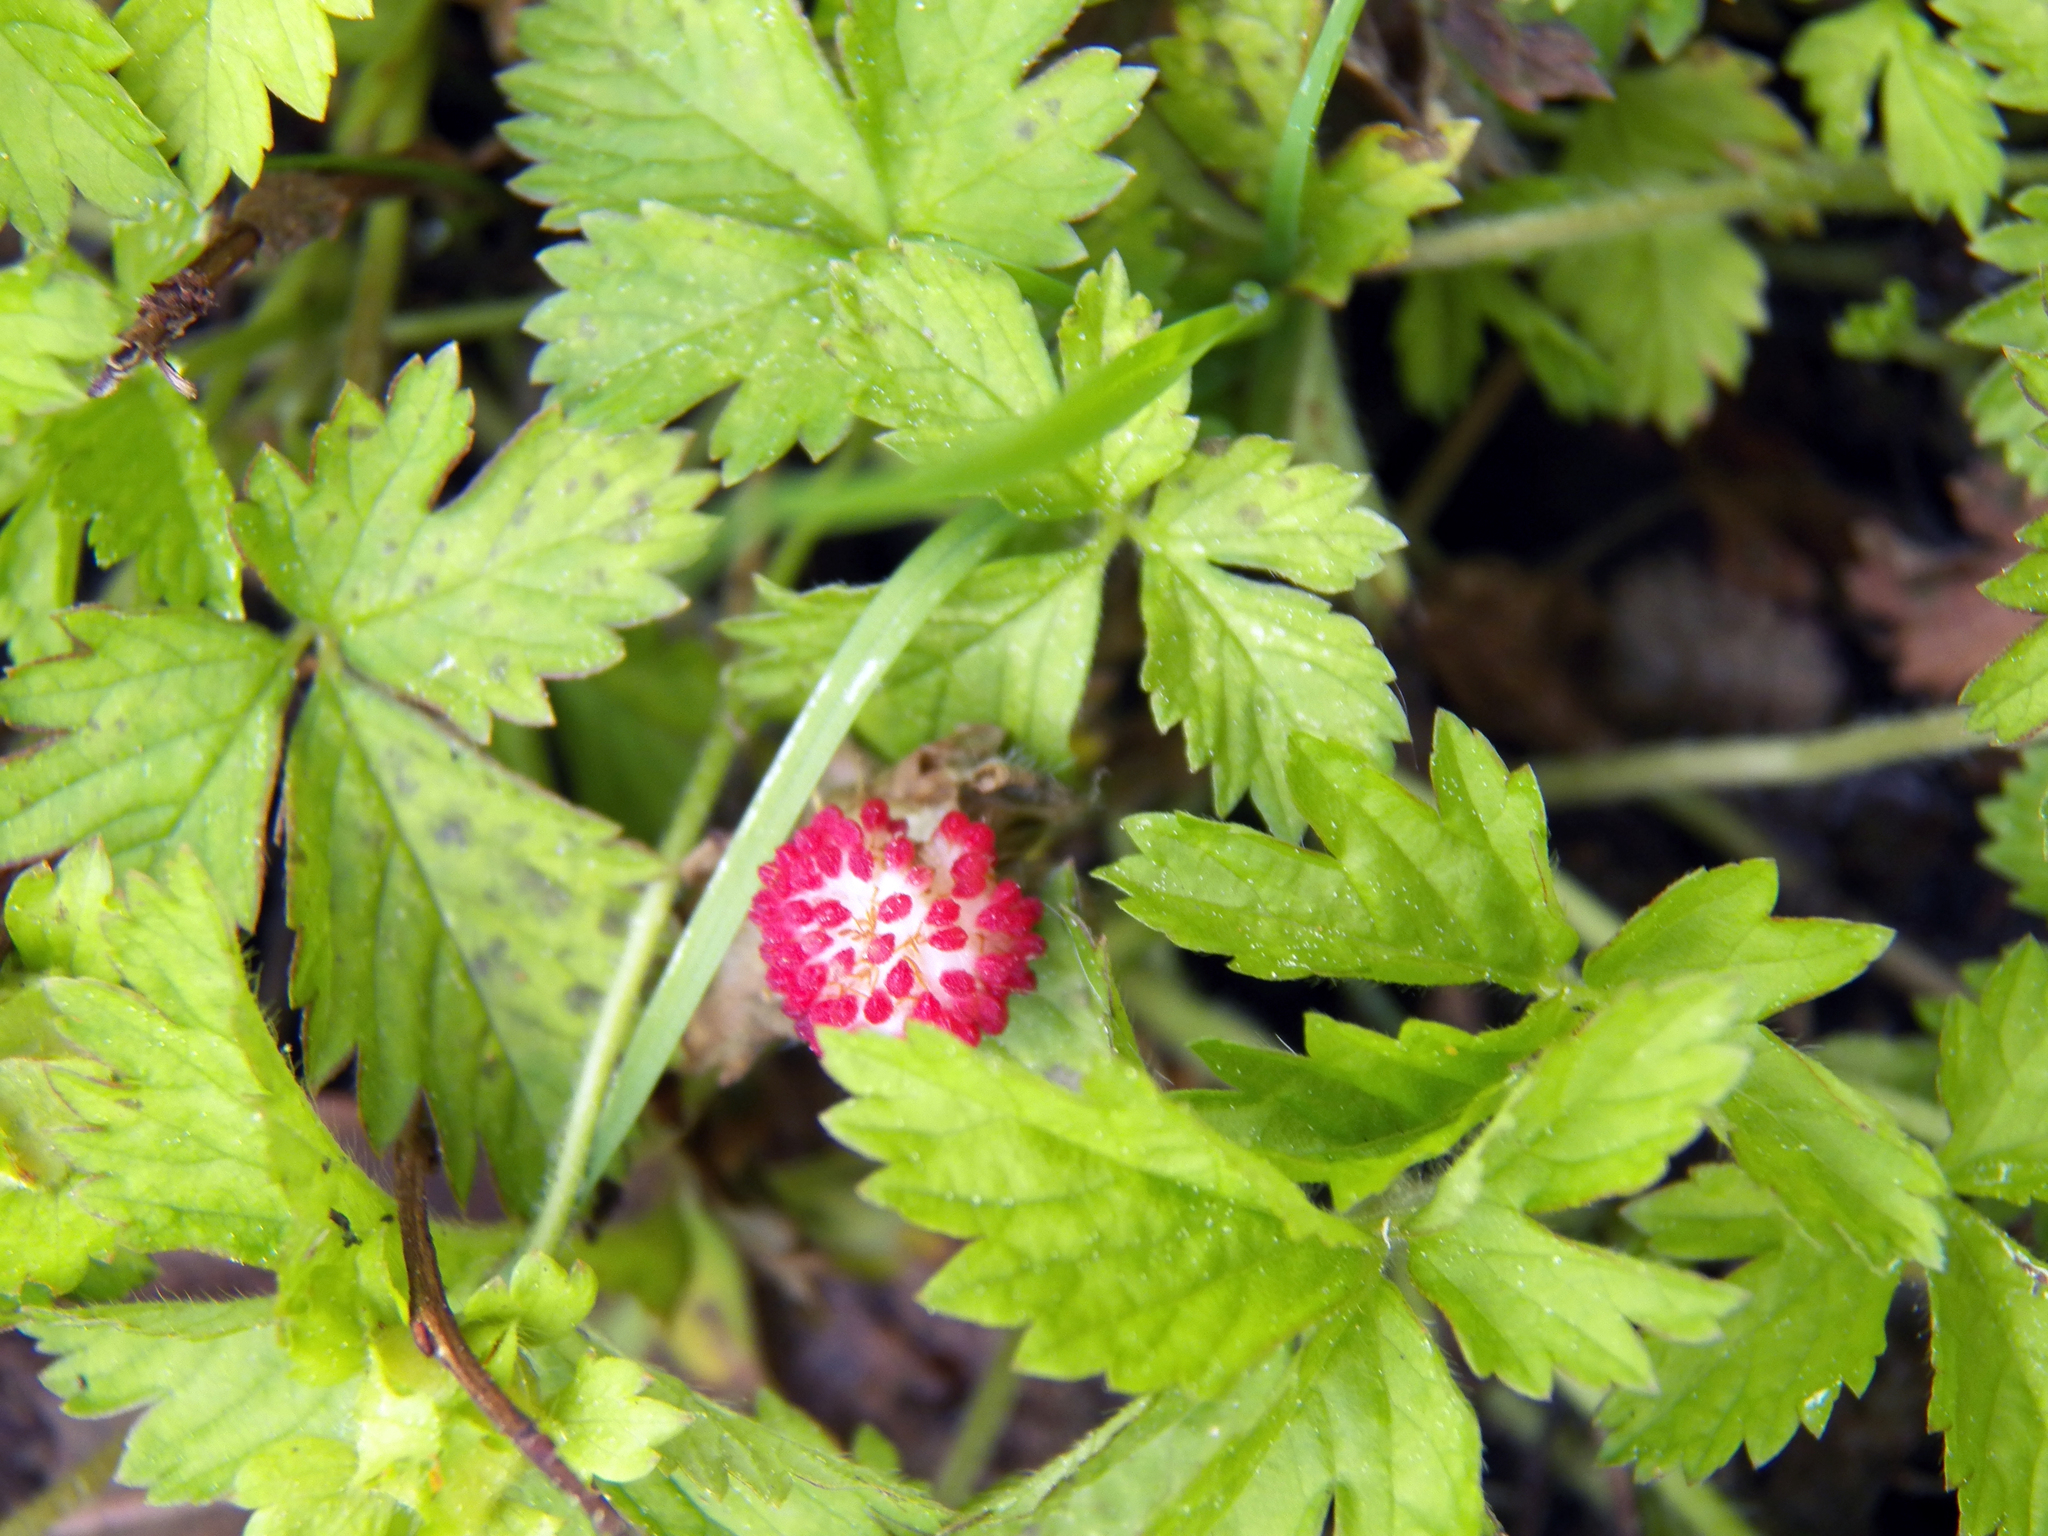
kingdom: Plantae
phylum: Tracheophyta
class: Magnoliopsida
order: Rosales
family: Rosaceae
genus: Potentilla
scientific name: Potentilla indica
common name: Yellow-flowered strawberry
